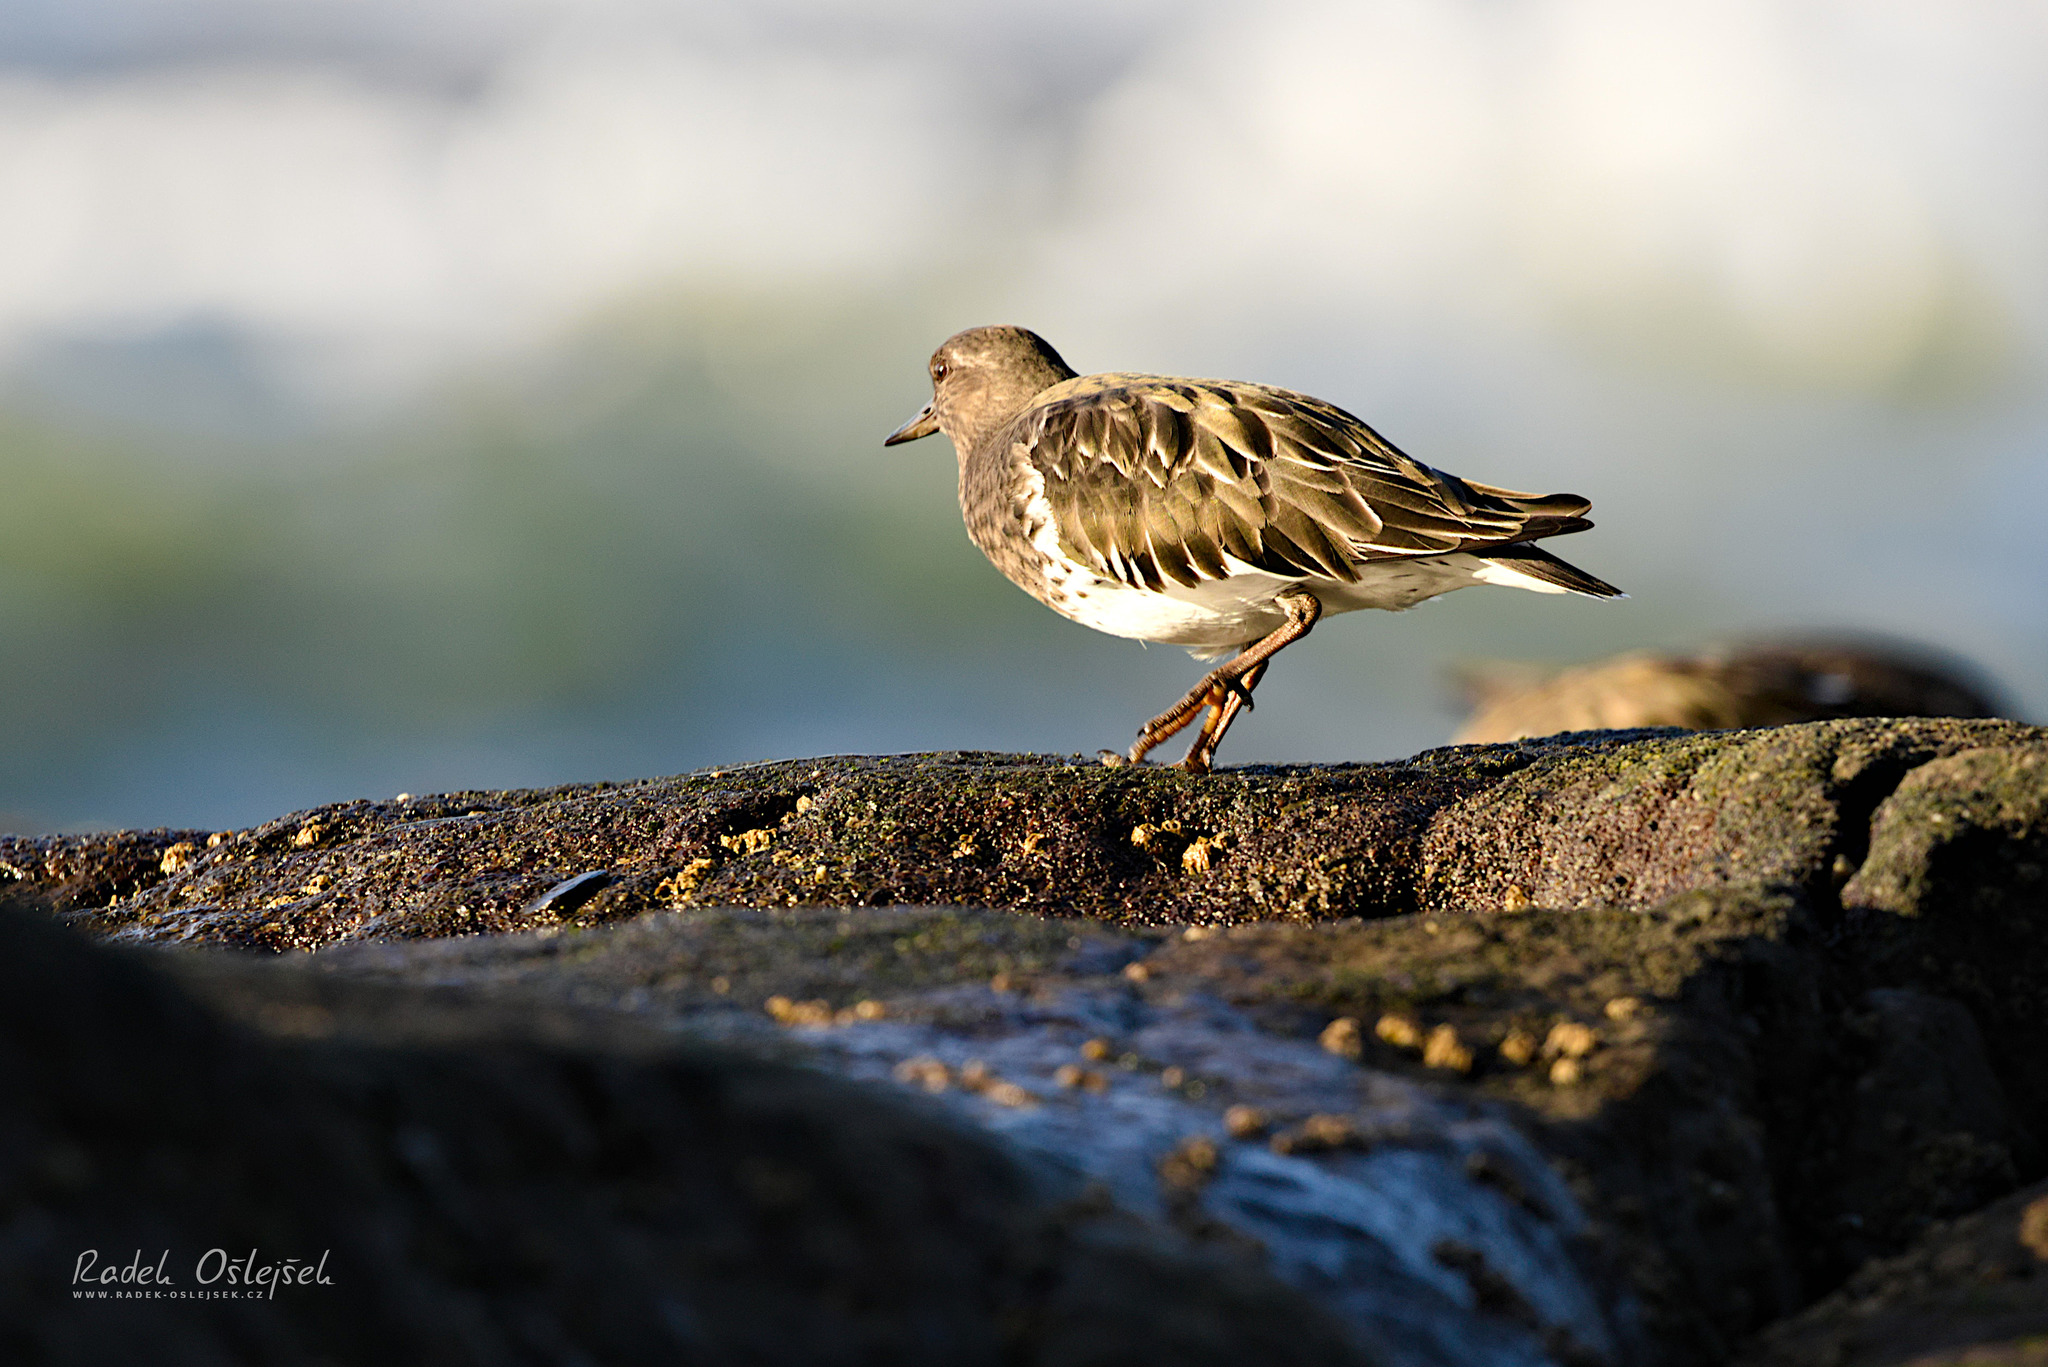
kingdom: Animalia
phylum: Chordata
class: Aves
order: Charadriiformes
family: Scolopacidae
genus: Arenaria
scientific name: Arenaria melanocephala
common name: Black turnstone
